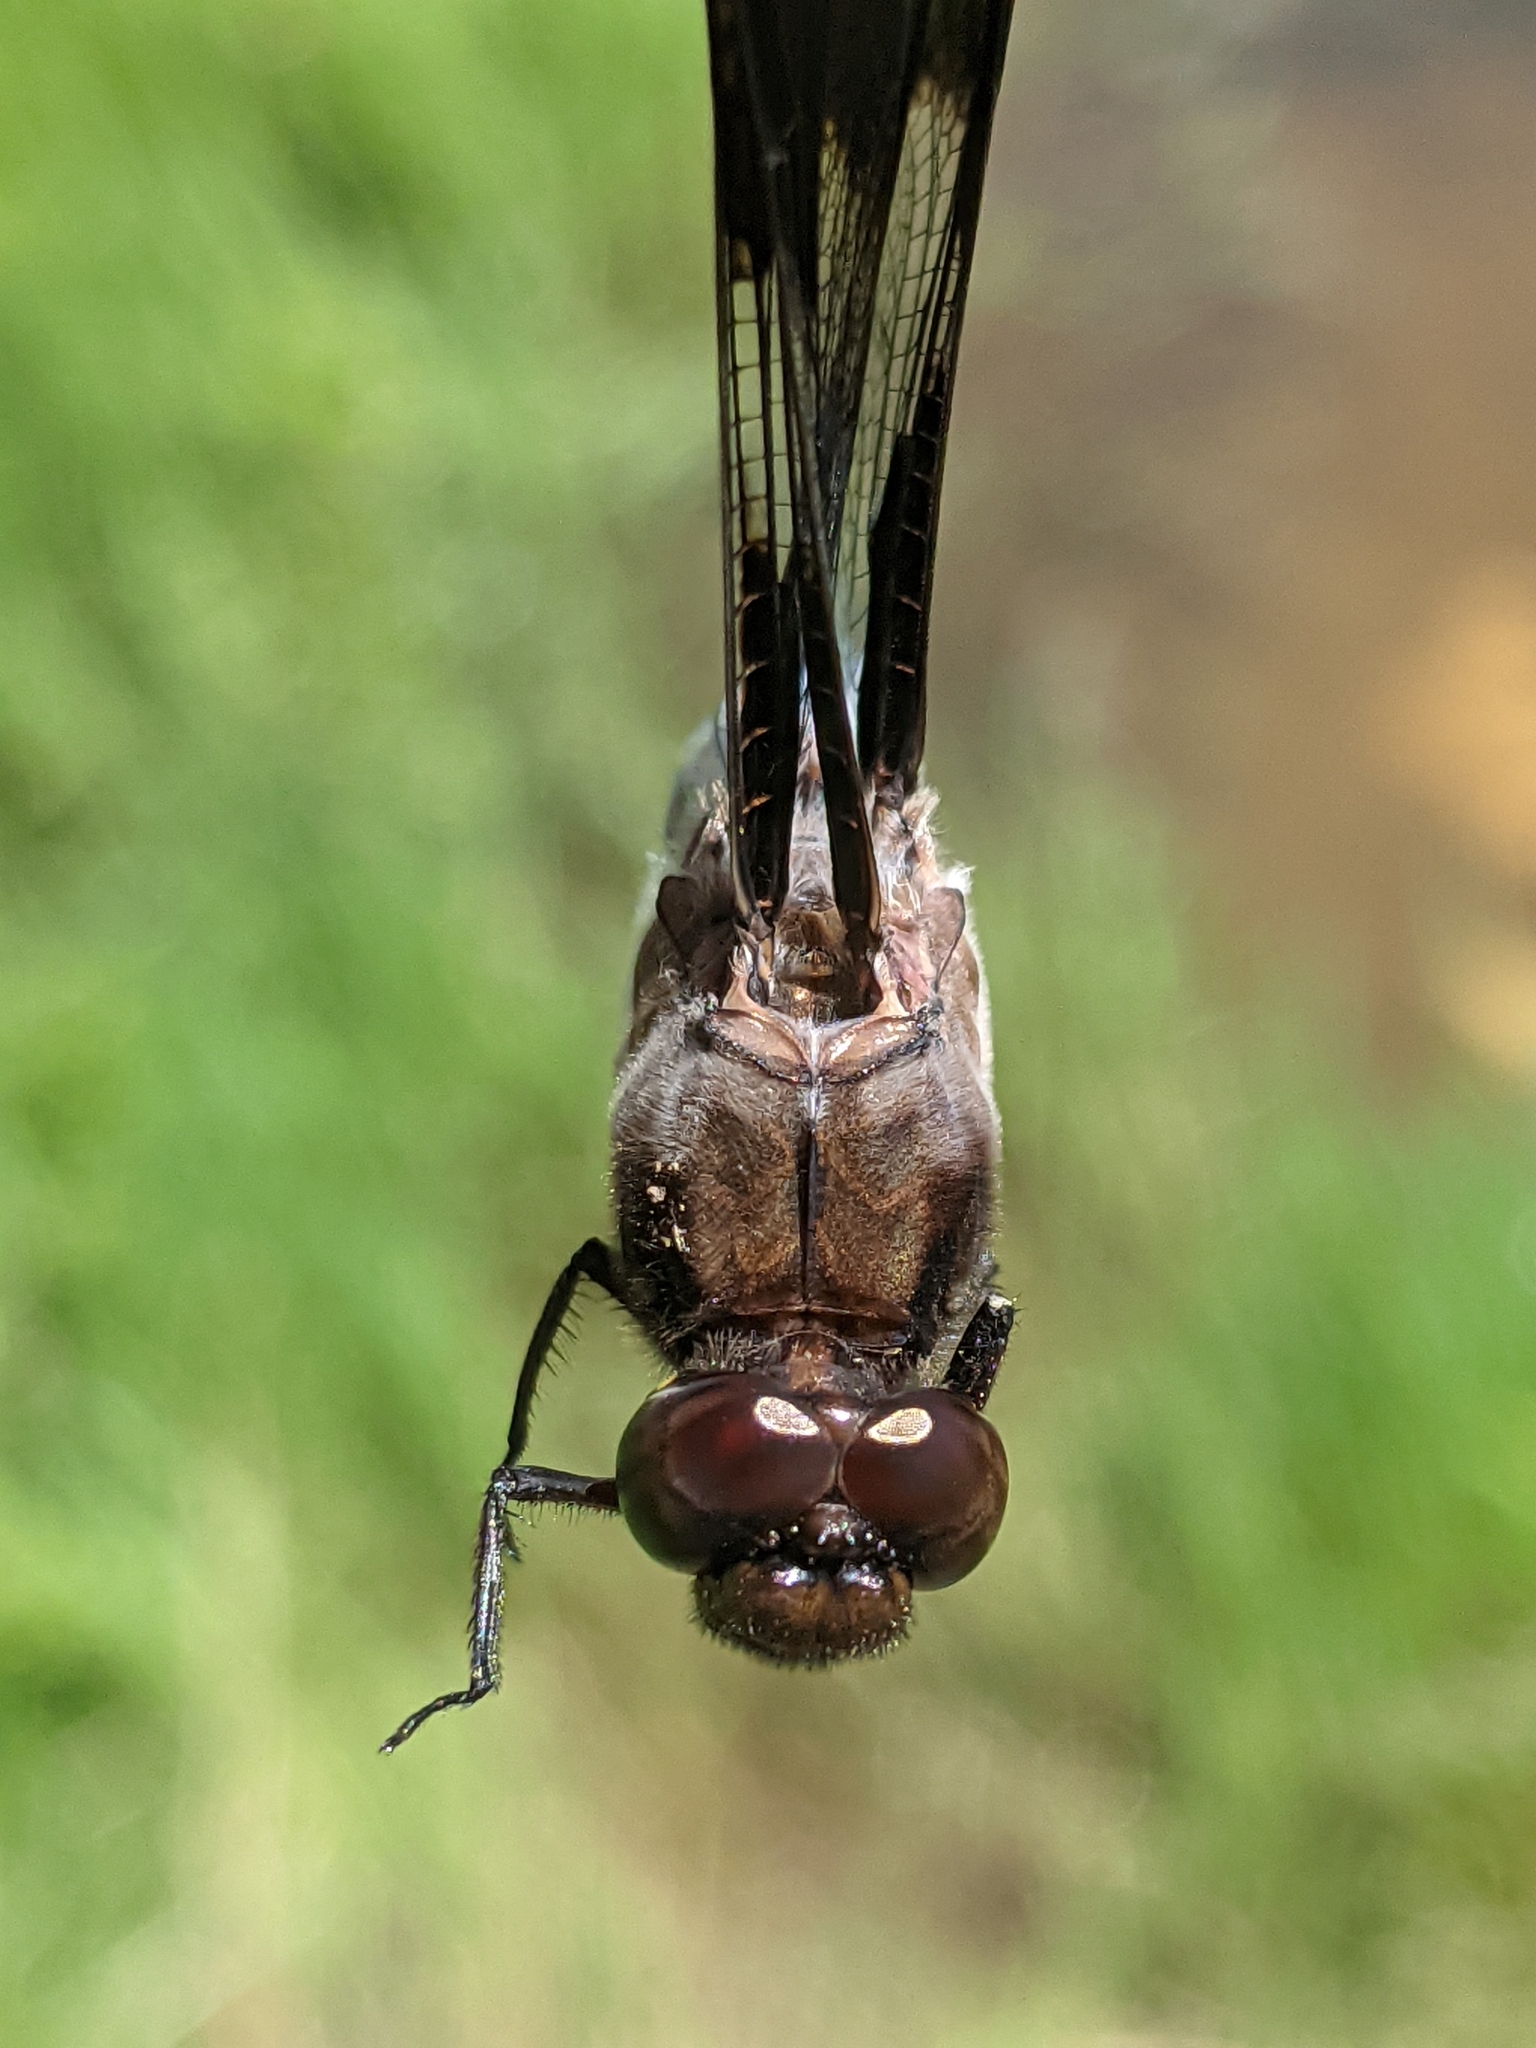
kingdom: Animalia
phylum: Arthropoda
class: Insecta
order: Odonata
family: Libellulidae
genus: Plathemis
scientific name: Plathemis lydia
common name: Common whitetail
